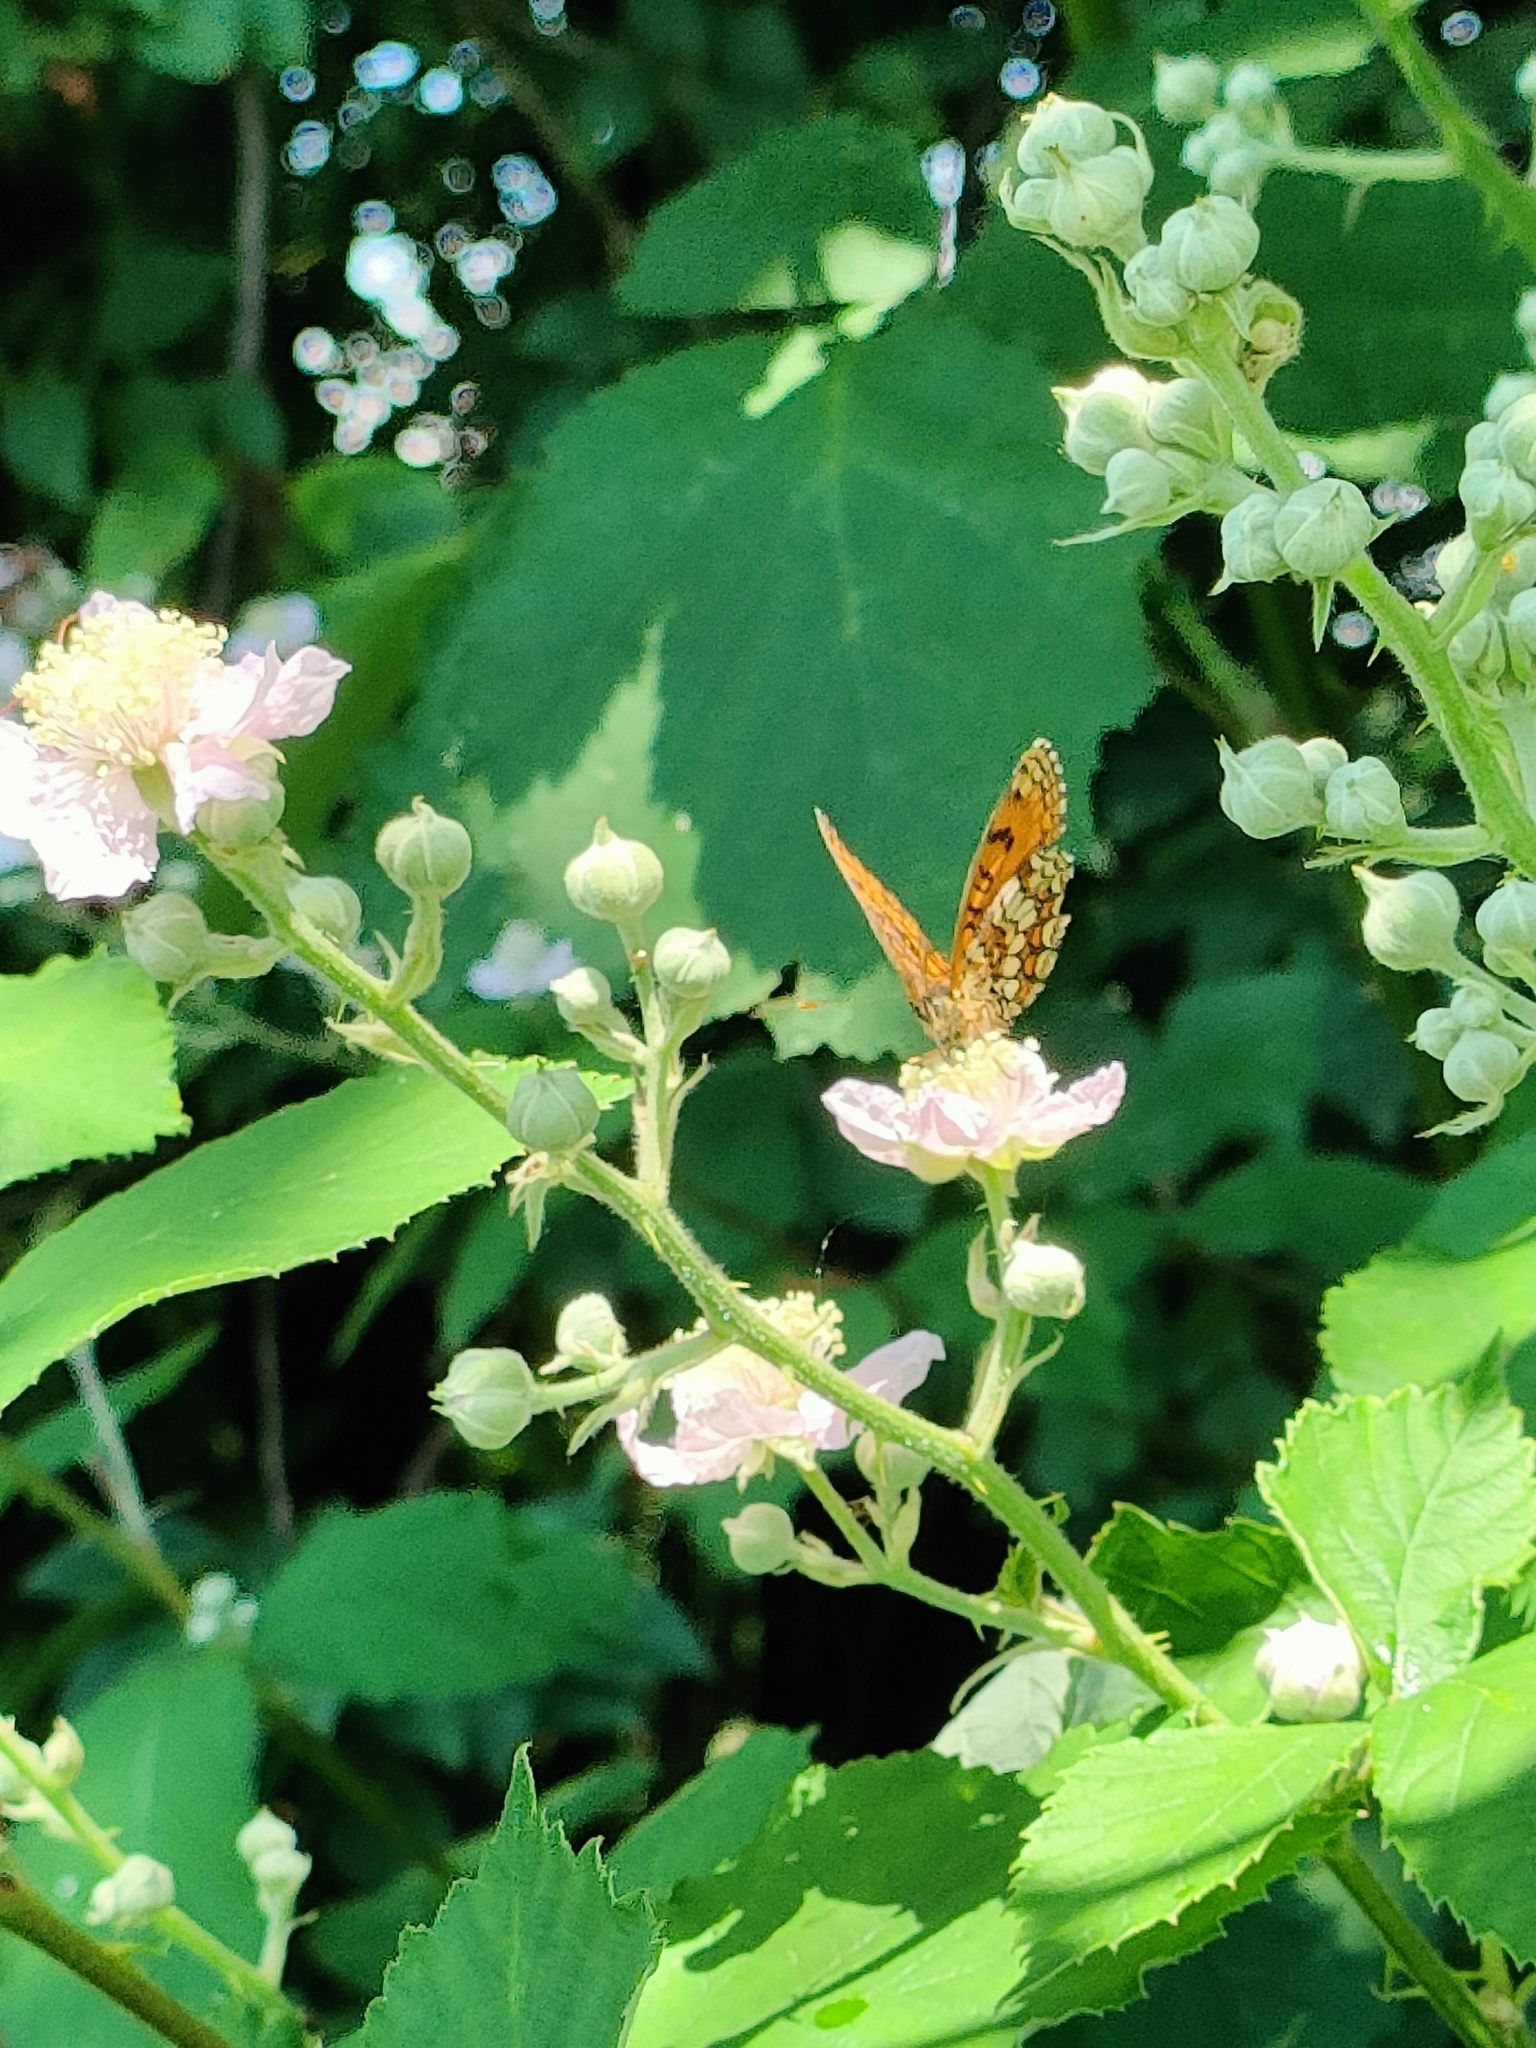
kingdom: Animalia
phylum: Arthropoda
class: Insecta
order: Lepidoptera
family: Nymphalidae
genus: Mellicta
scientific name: Mellicta athalia
